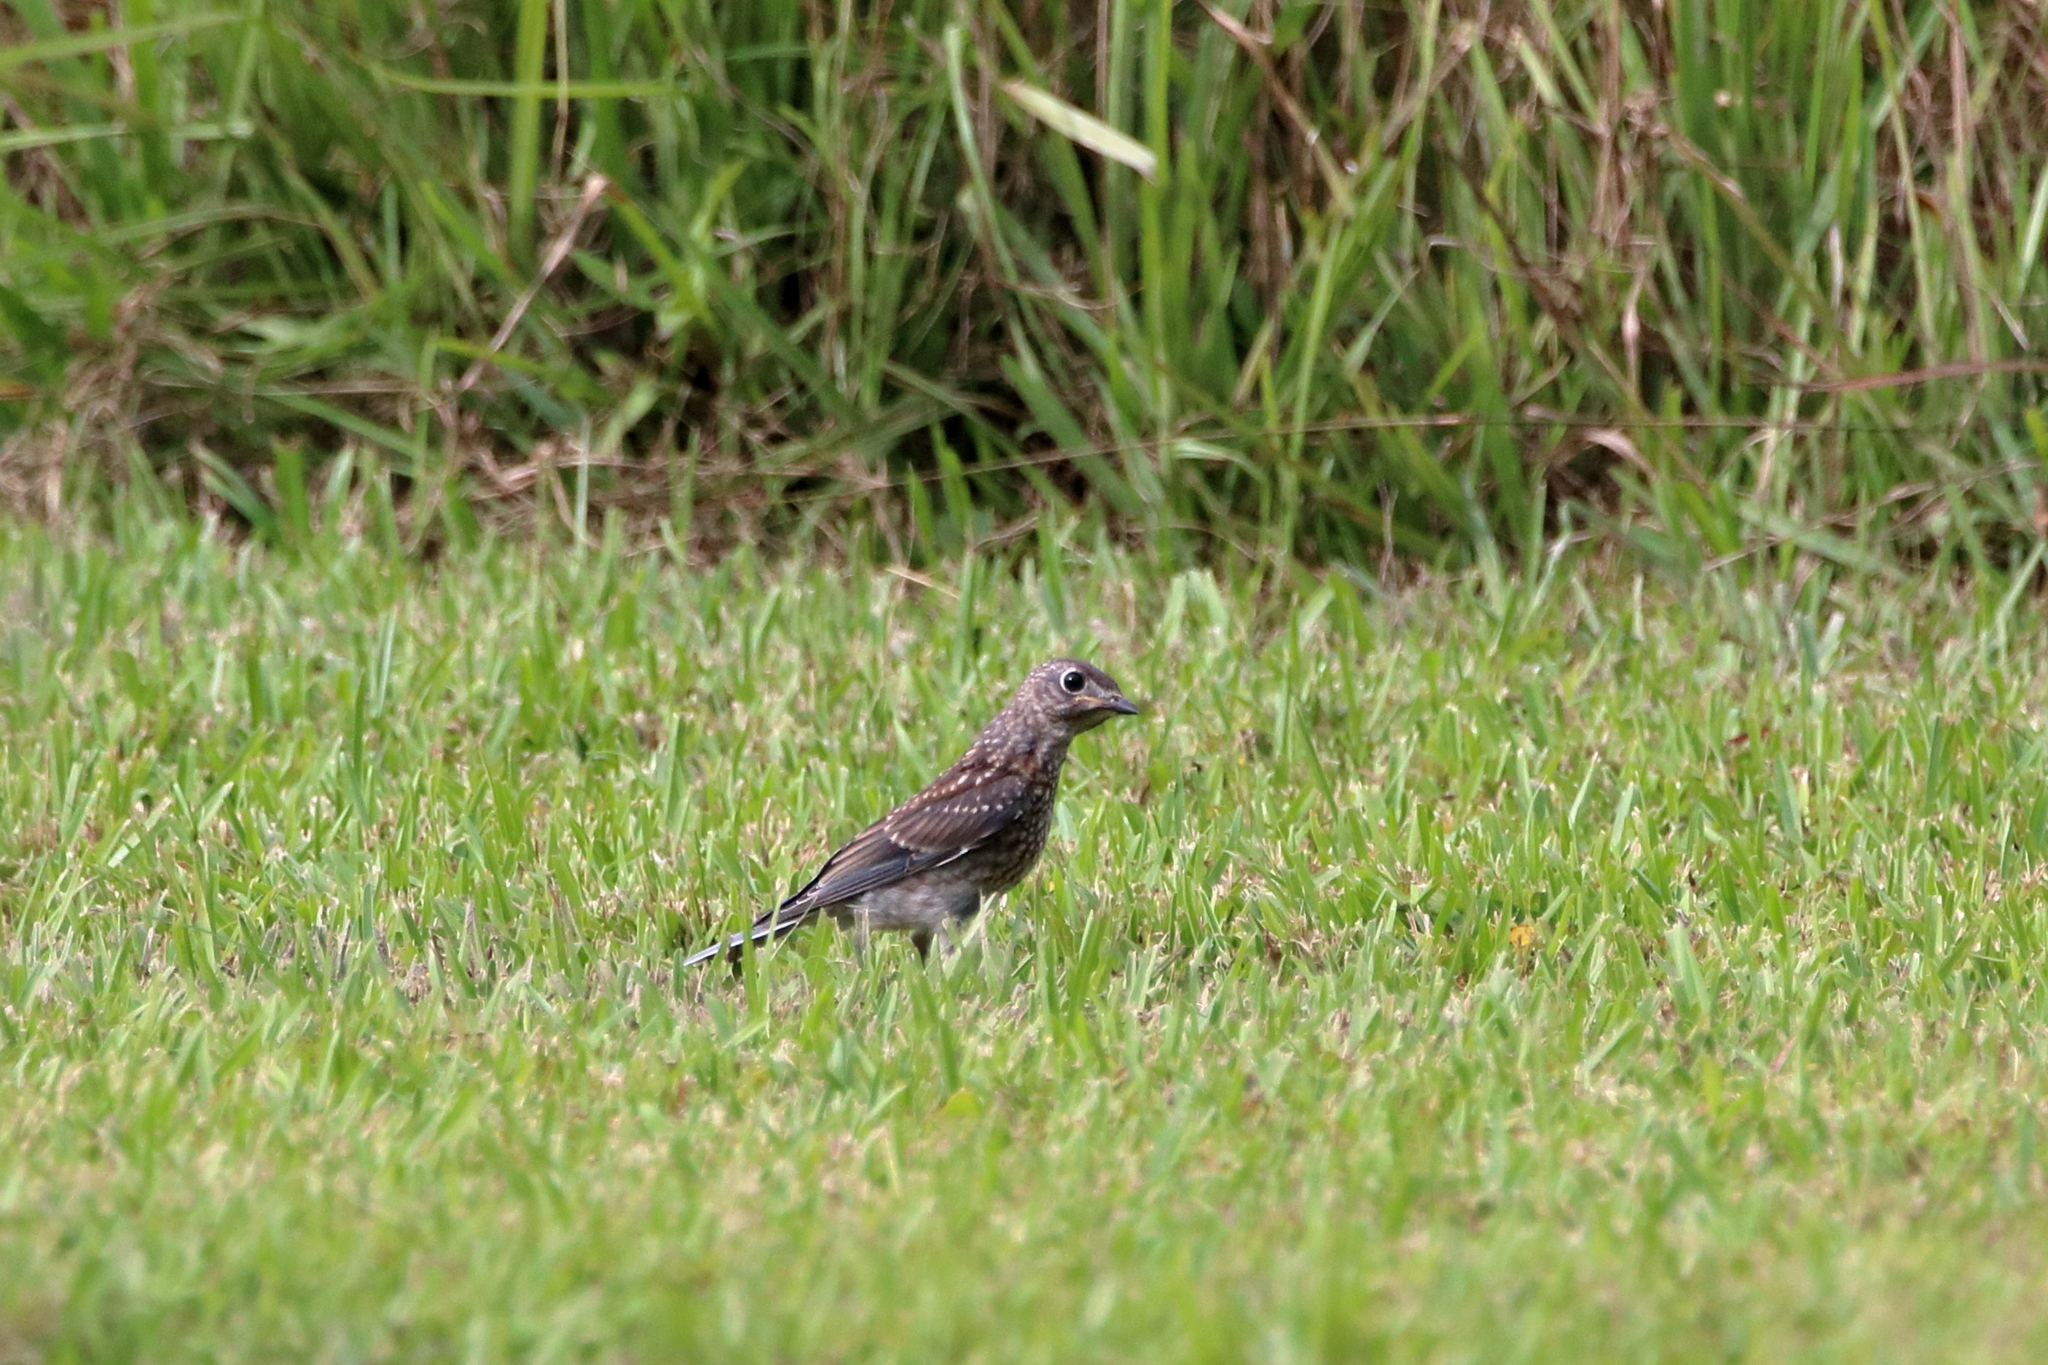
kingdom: Animalia
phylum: Chordata
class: Aves
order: Passeriformes
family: Turdidae
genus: Sialia
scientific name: Sialia sialis
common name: Eastern bluebird
